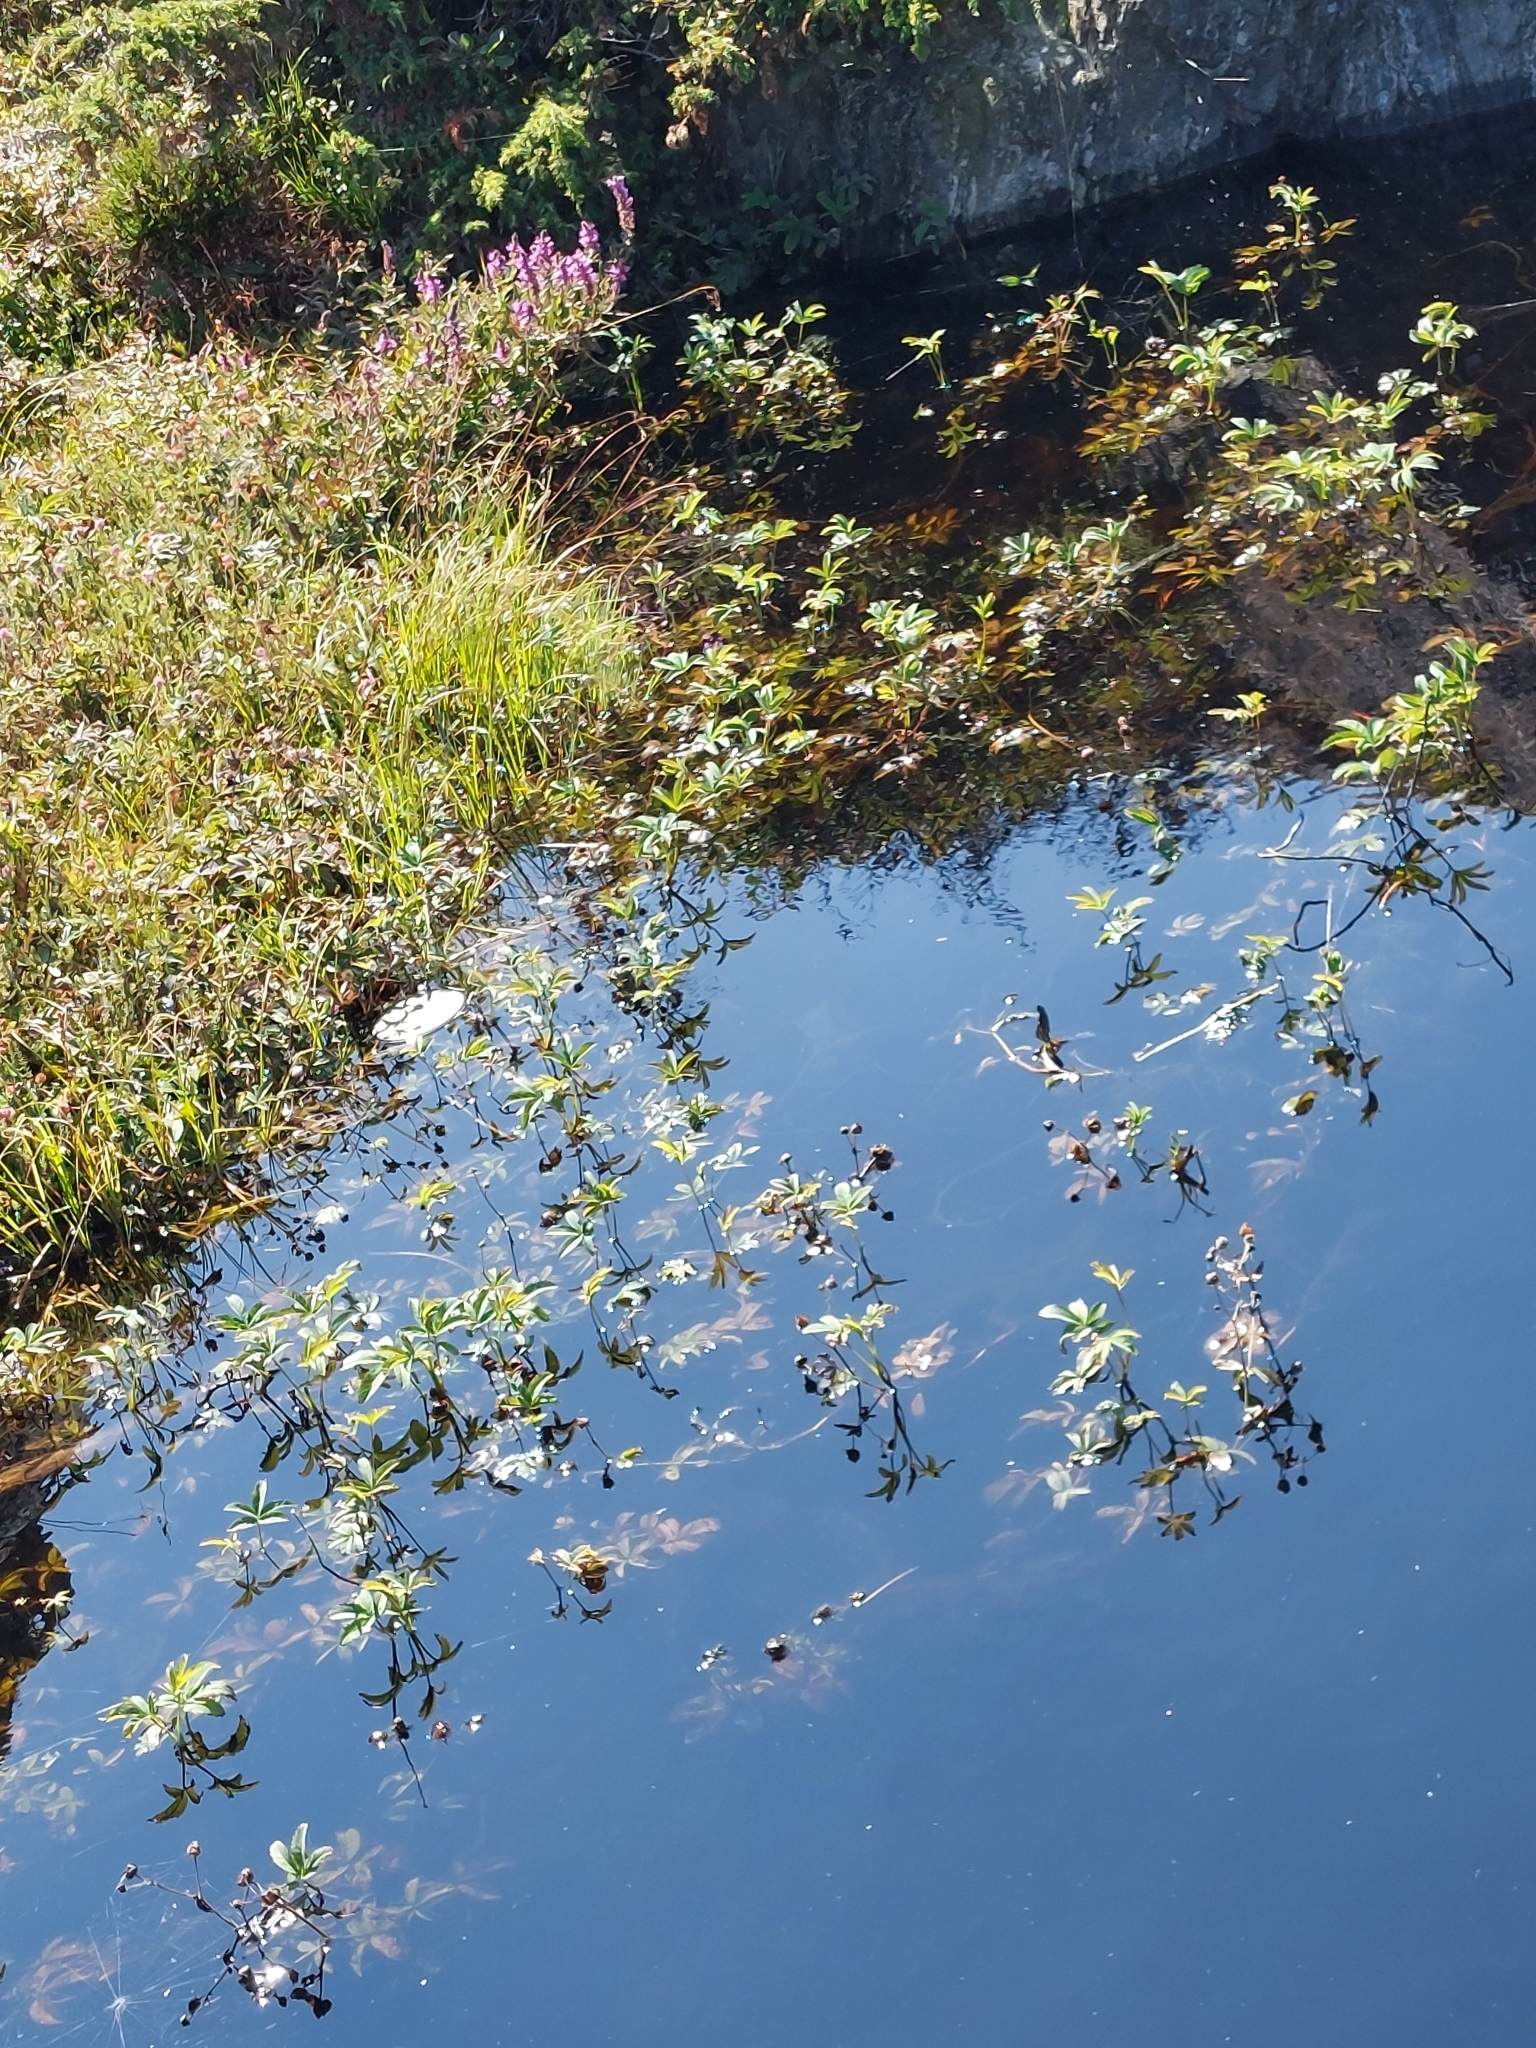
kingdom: Plantae
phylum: Tracheophyta
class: Magnoliopsida
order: Rosales
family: Rosaceae
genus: Comarum
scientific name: Comarum palustre
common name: Marsh cinquefoil
